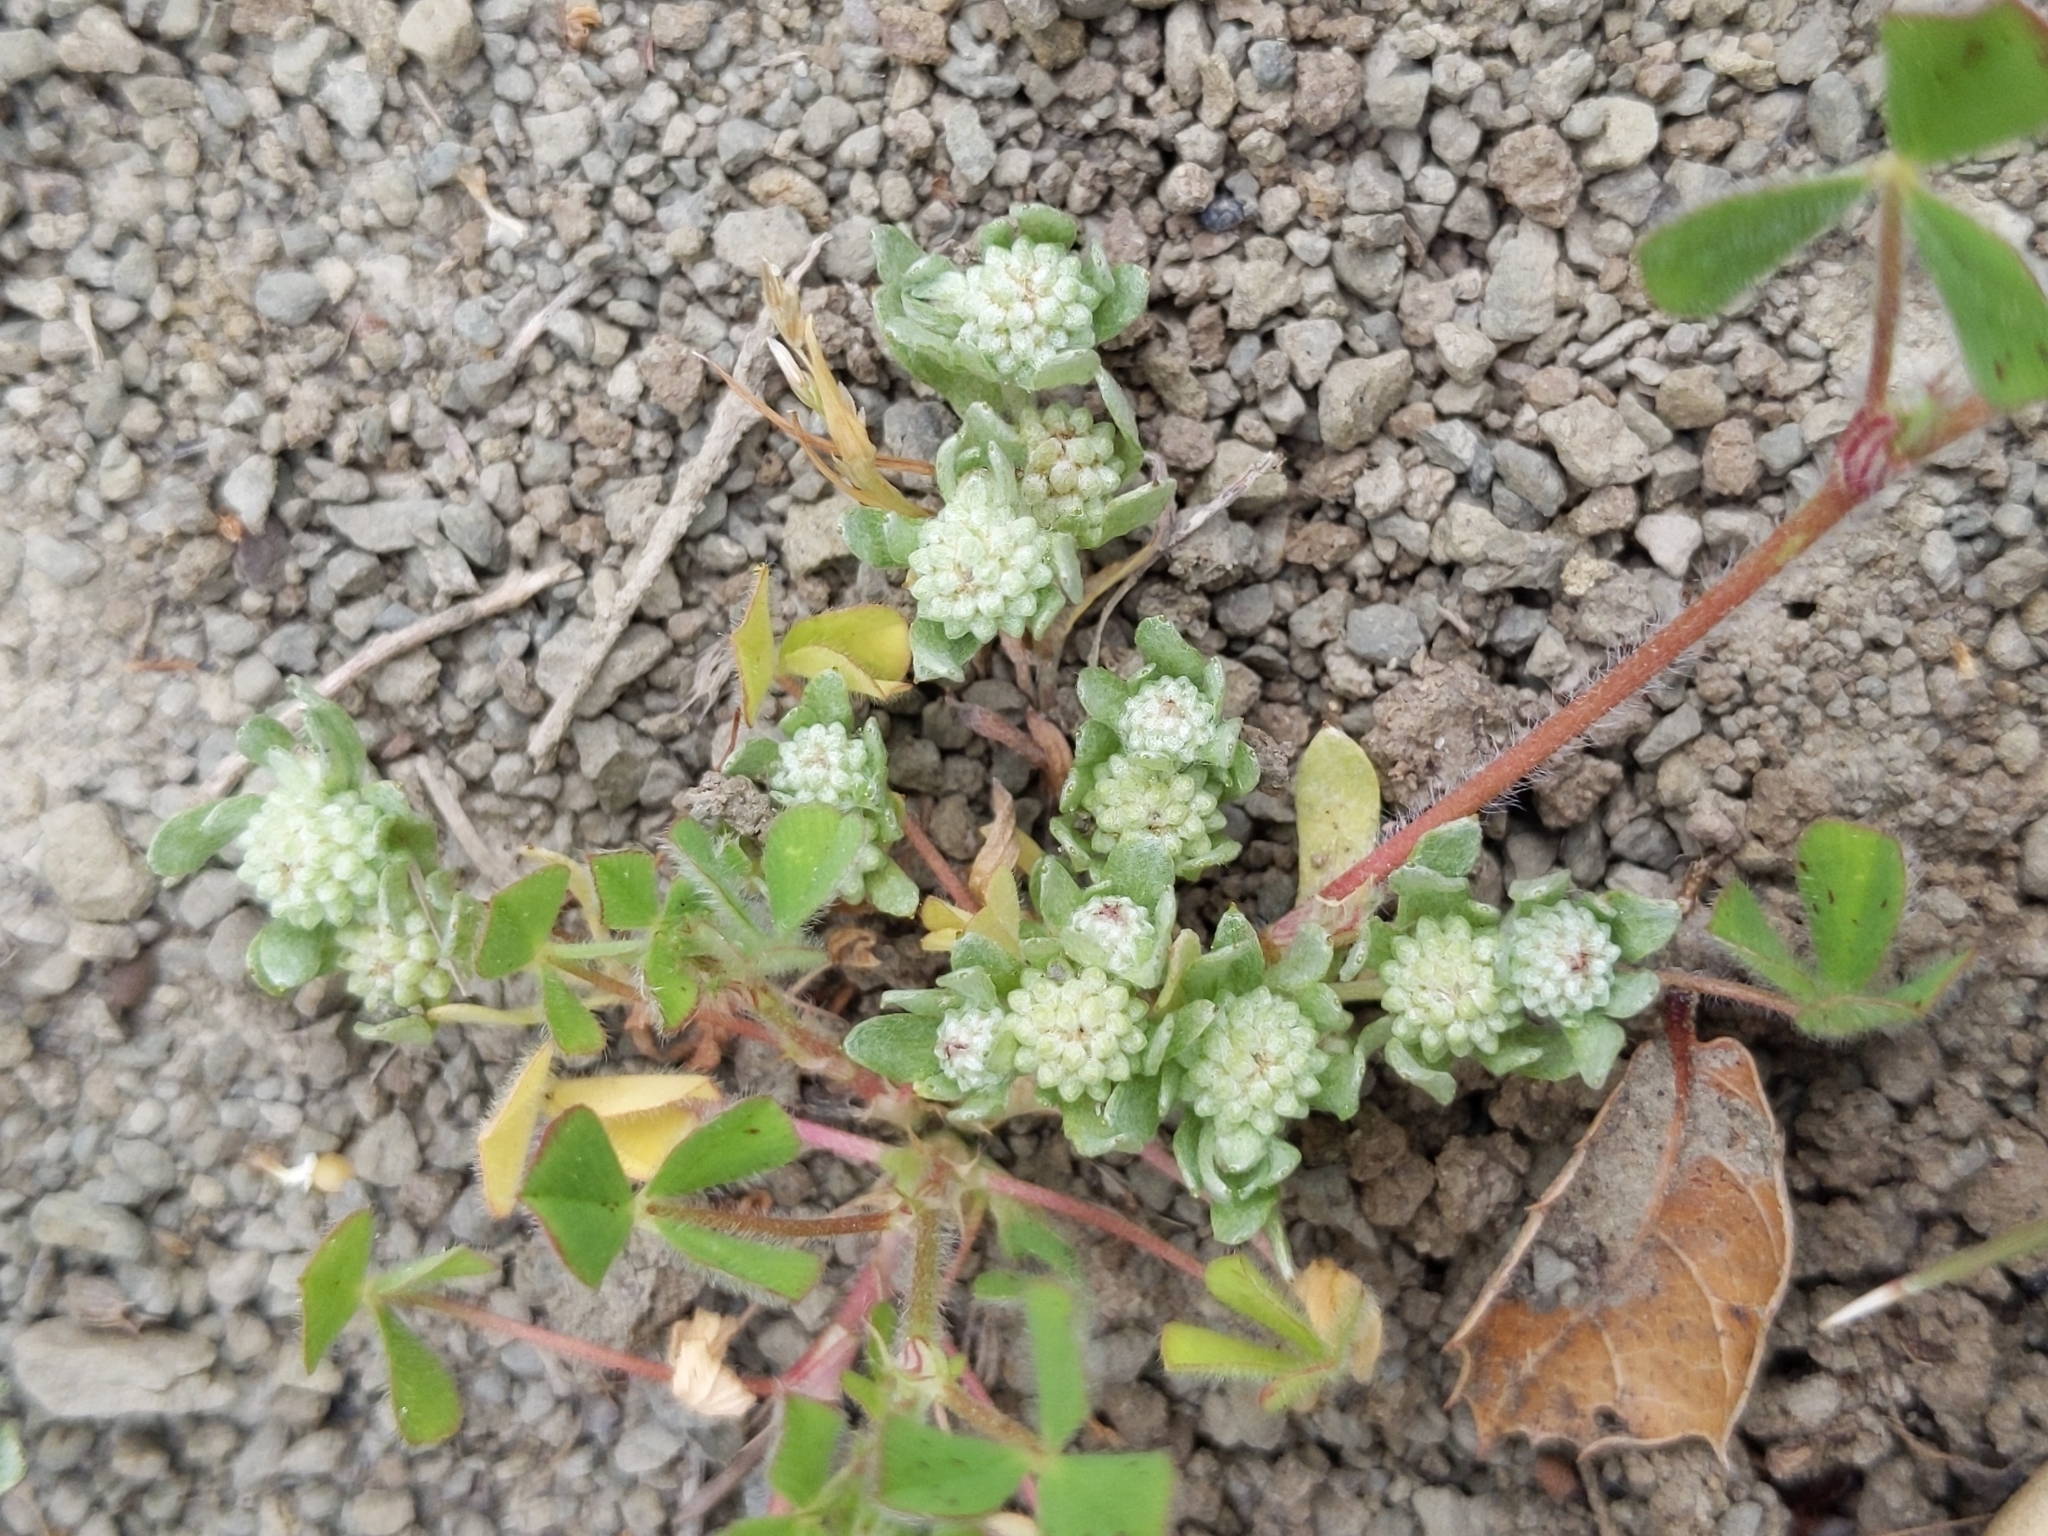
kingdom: Plantae
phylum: Tracheophyta
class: Magnoliopsida
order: Asterales
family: Asteraceae
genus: Psilocarphus
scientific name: Psilocarphus tenellus
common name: Slender woolly-marbles
